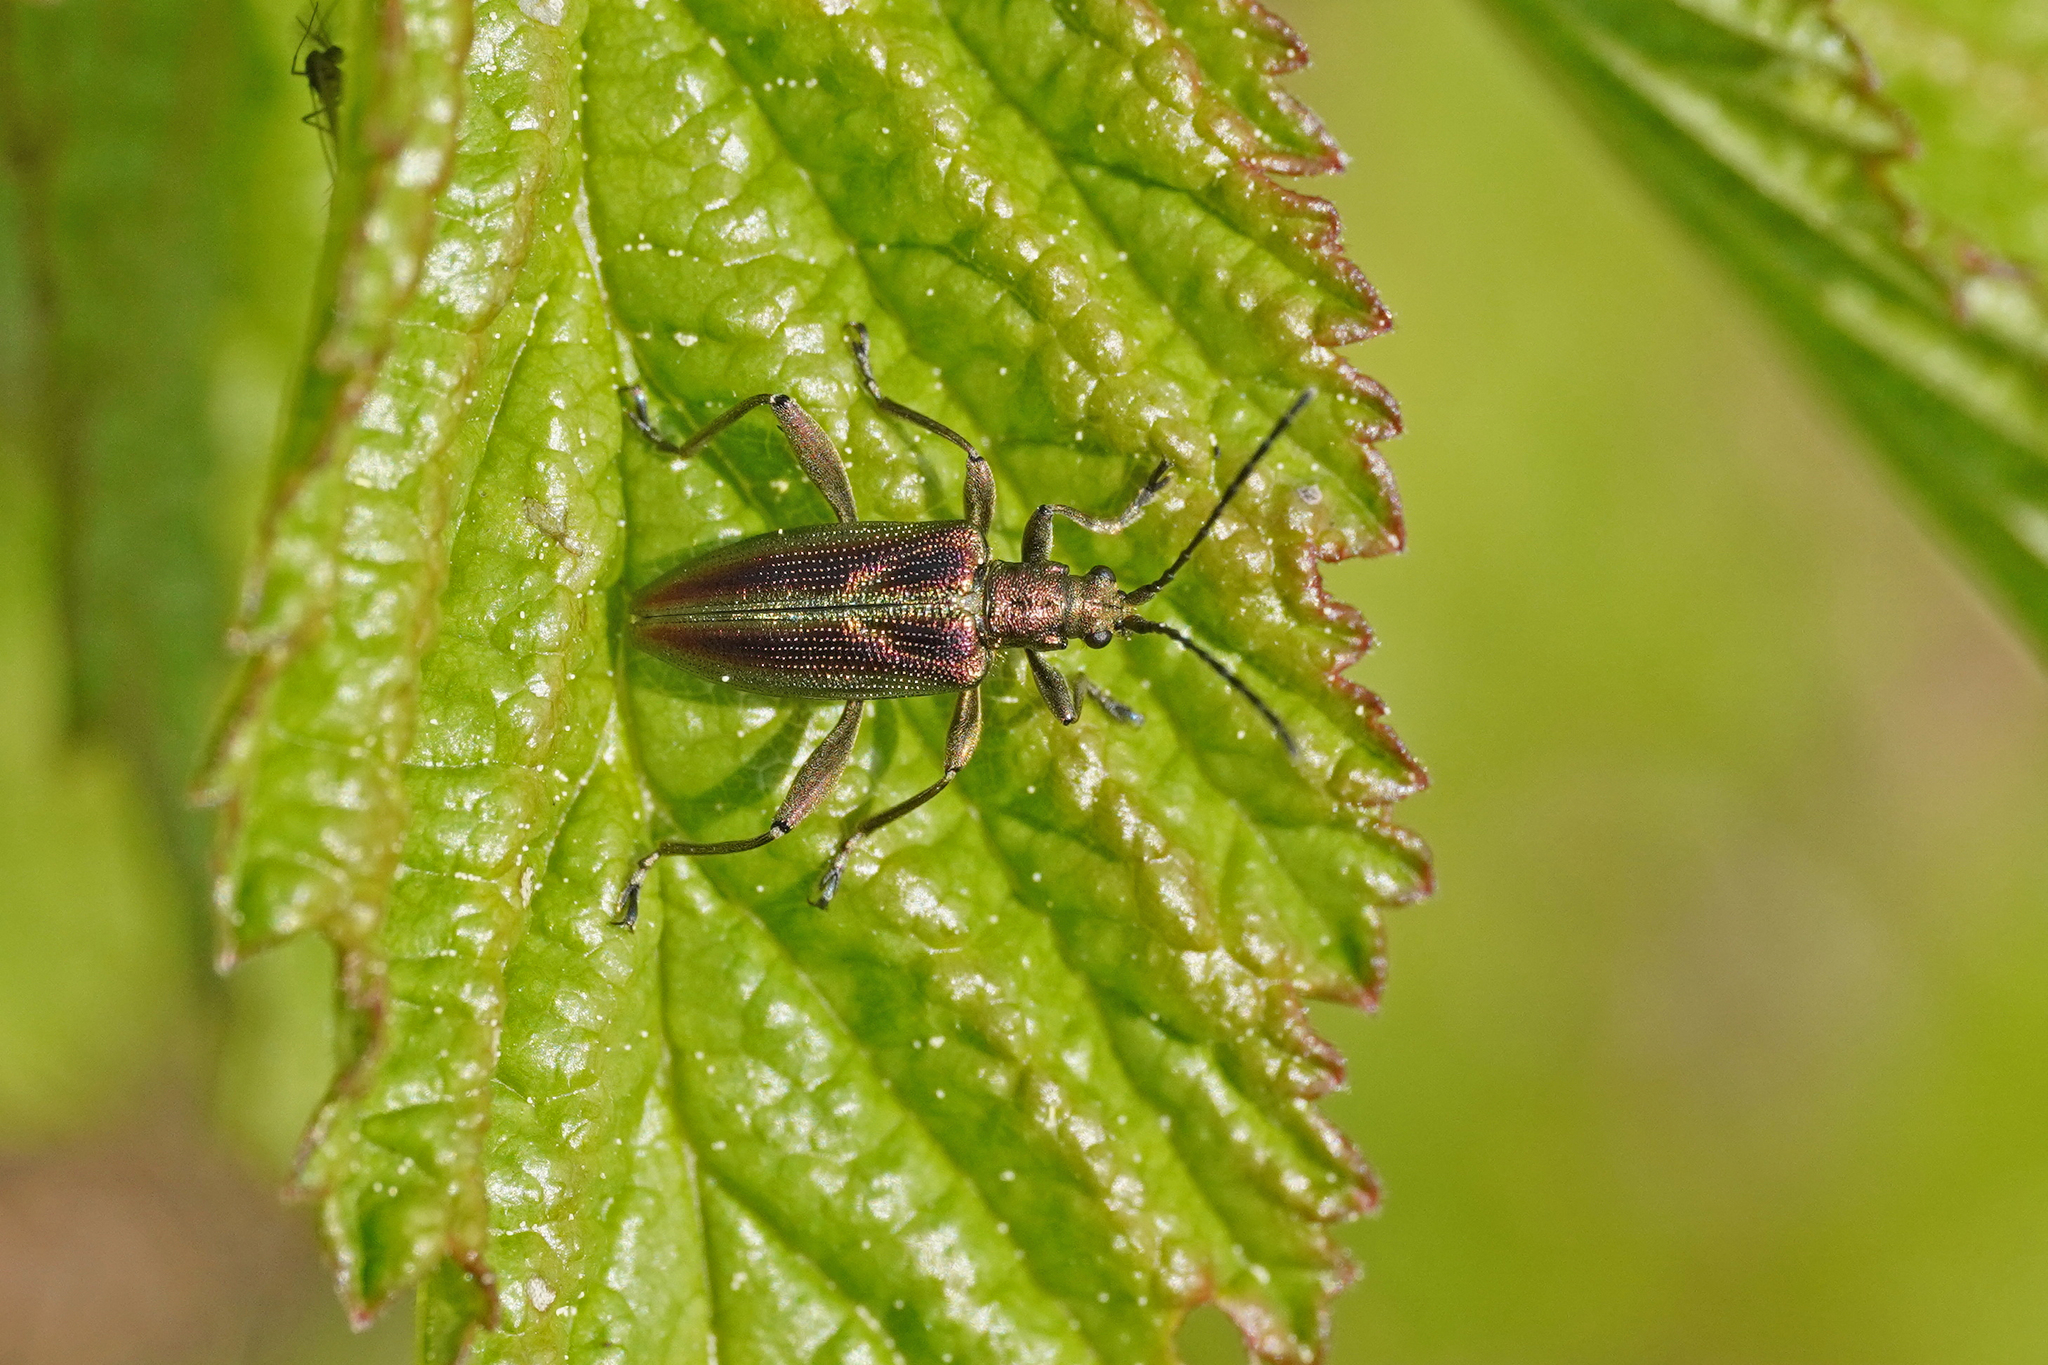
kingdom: Animalia
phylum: Arthropoda
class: Insecta
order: Coleoptera
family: Chrysomelidae
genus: Donacia
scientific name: Donacia aquatica
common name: Zircon reed beetle
